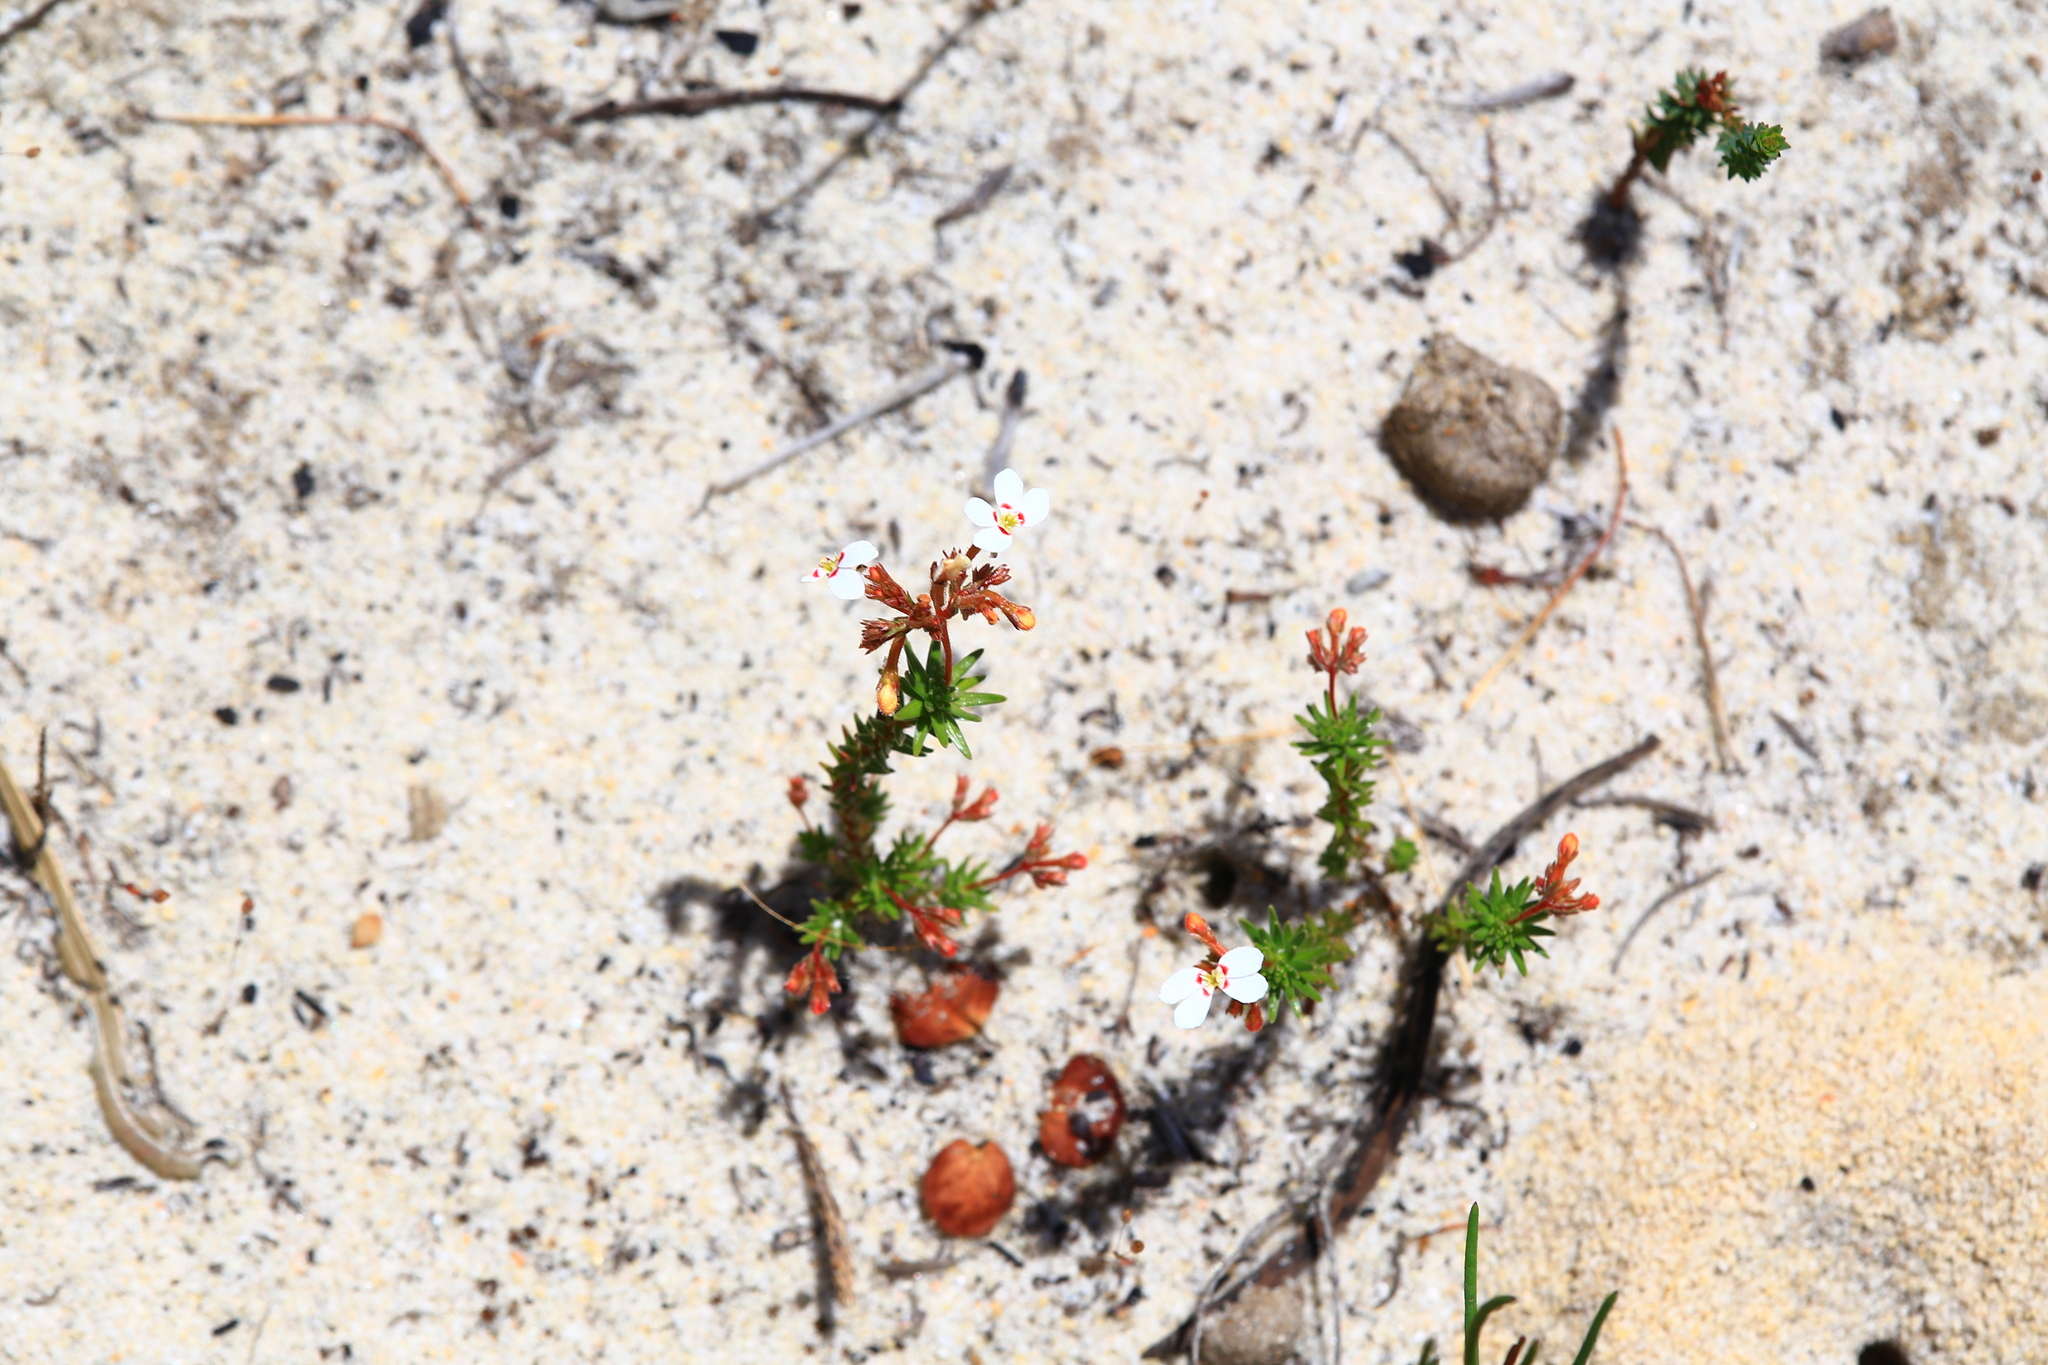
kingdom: Plantae
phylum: Tracheophyta
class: Magnoliopsida
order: Asterales
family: Stylidiaceae
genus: Stylidium
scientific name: Stylidium adpressum
